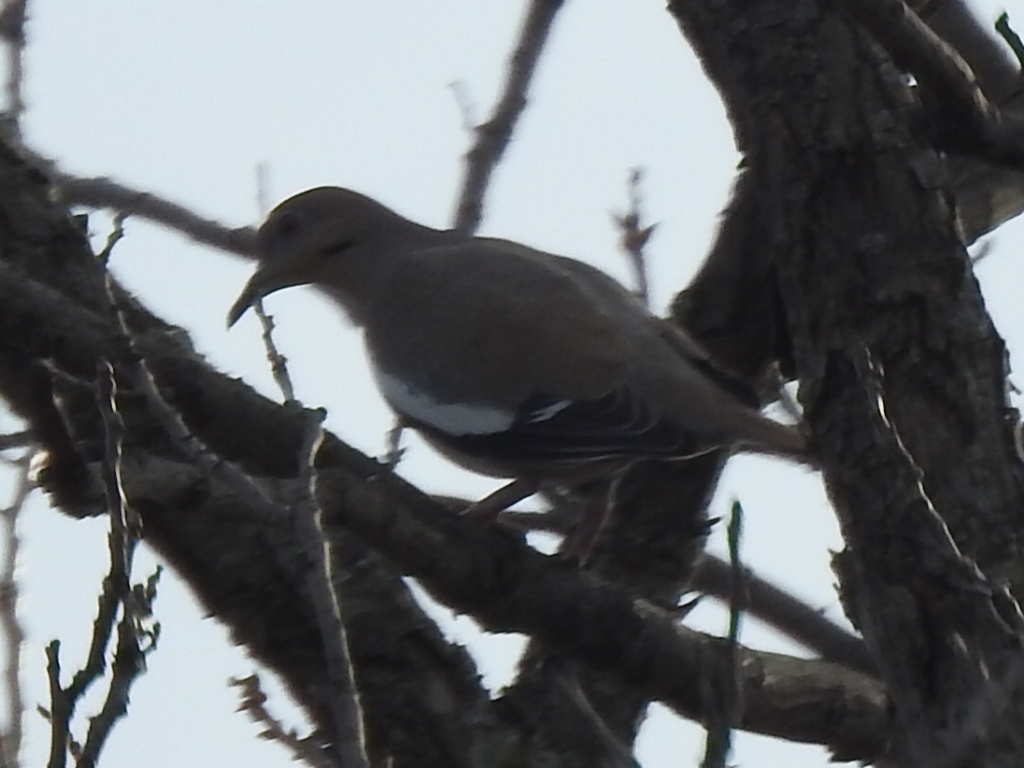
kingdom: Animalia
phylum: Chordata
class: Aves
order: Columbiformes
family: Columbidae
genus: Zenaida
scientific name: Zenaida asiatica
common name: White-winged dove
